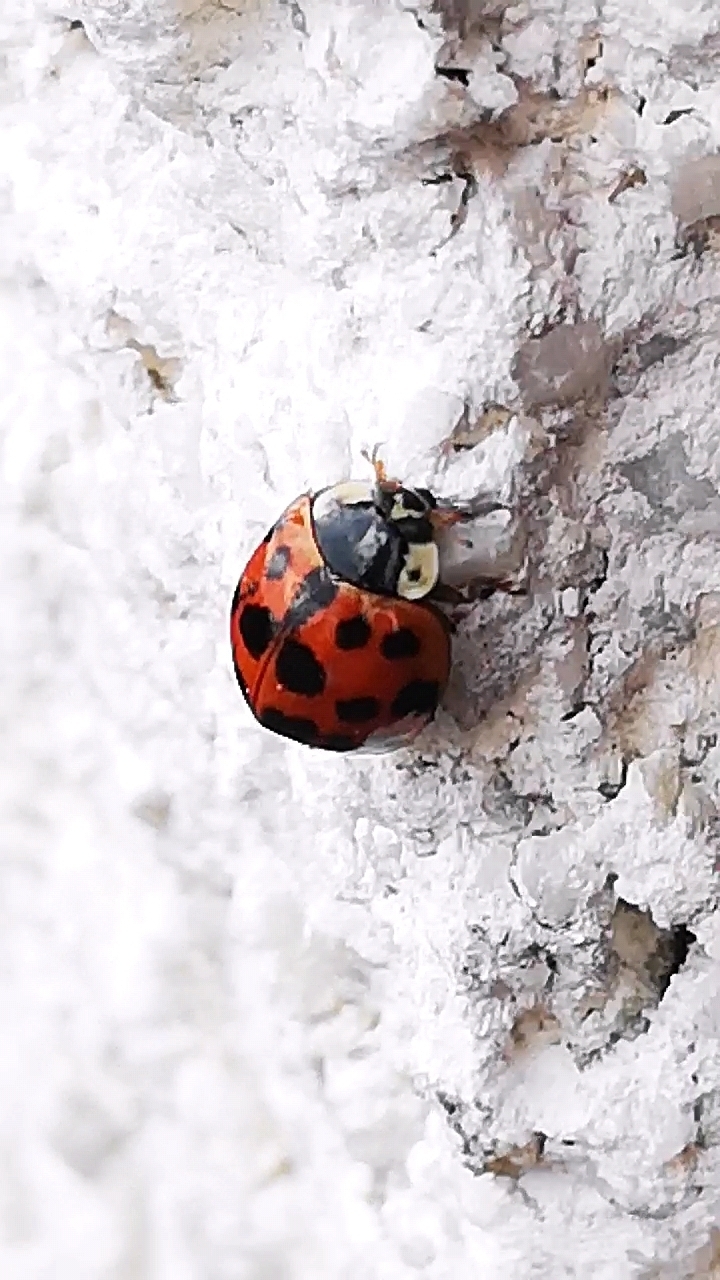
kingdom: Animalia
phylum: Arthropoda
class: Insecta
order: Coleoptera
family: Coccinellidae
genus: Harmonia
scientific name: Harmonia axyridis
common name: Harlequin ladybird
